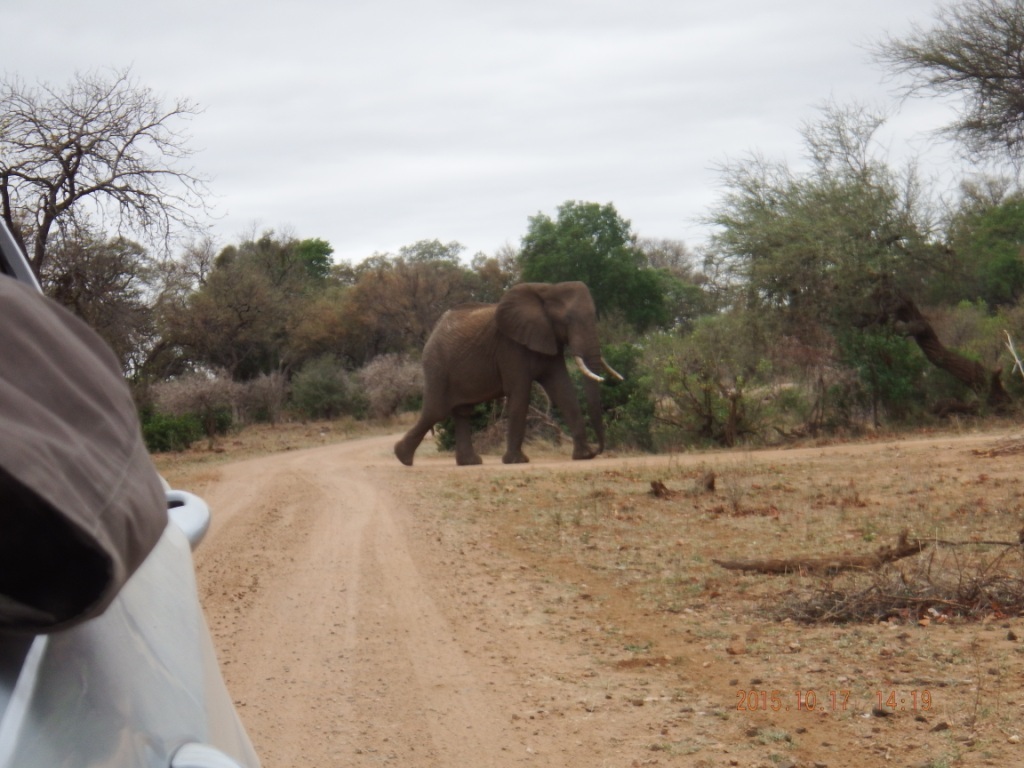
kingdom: Animalia
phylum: Chordata
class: Mammalia
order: Proboscidea
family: Elephantidae
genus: Loxodonta
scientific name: Loxodonta africana
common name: African elephant
